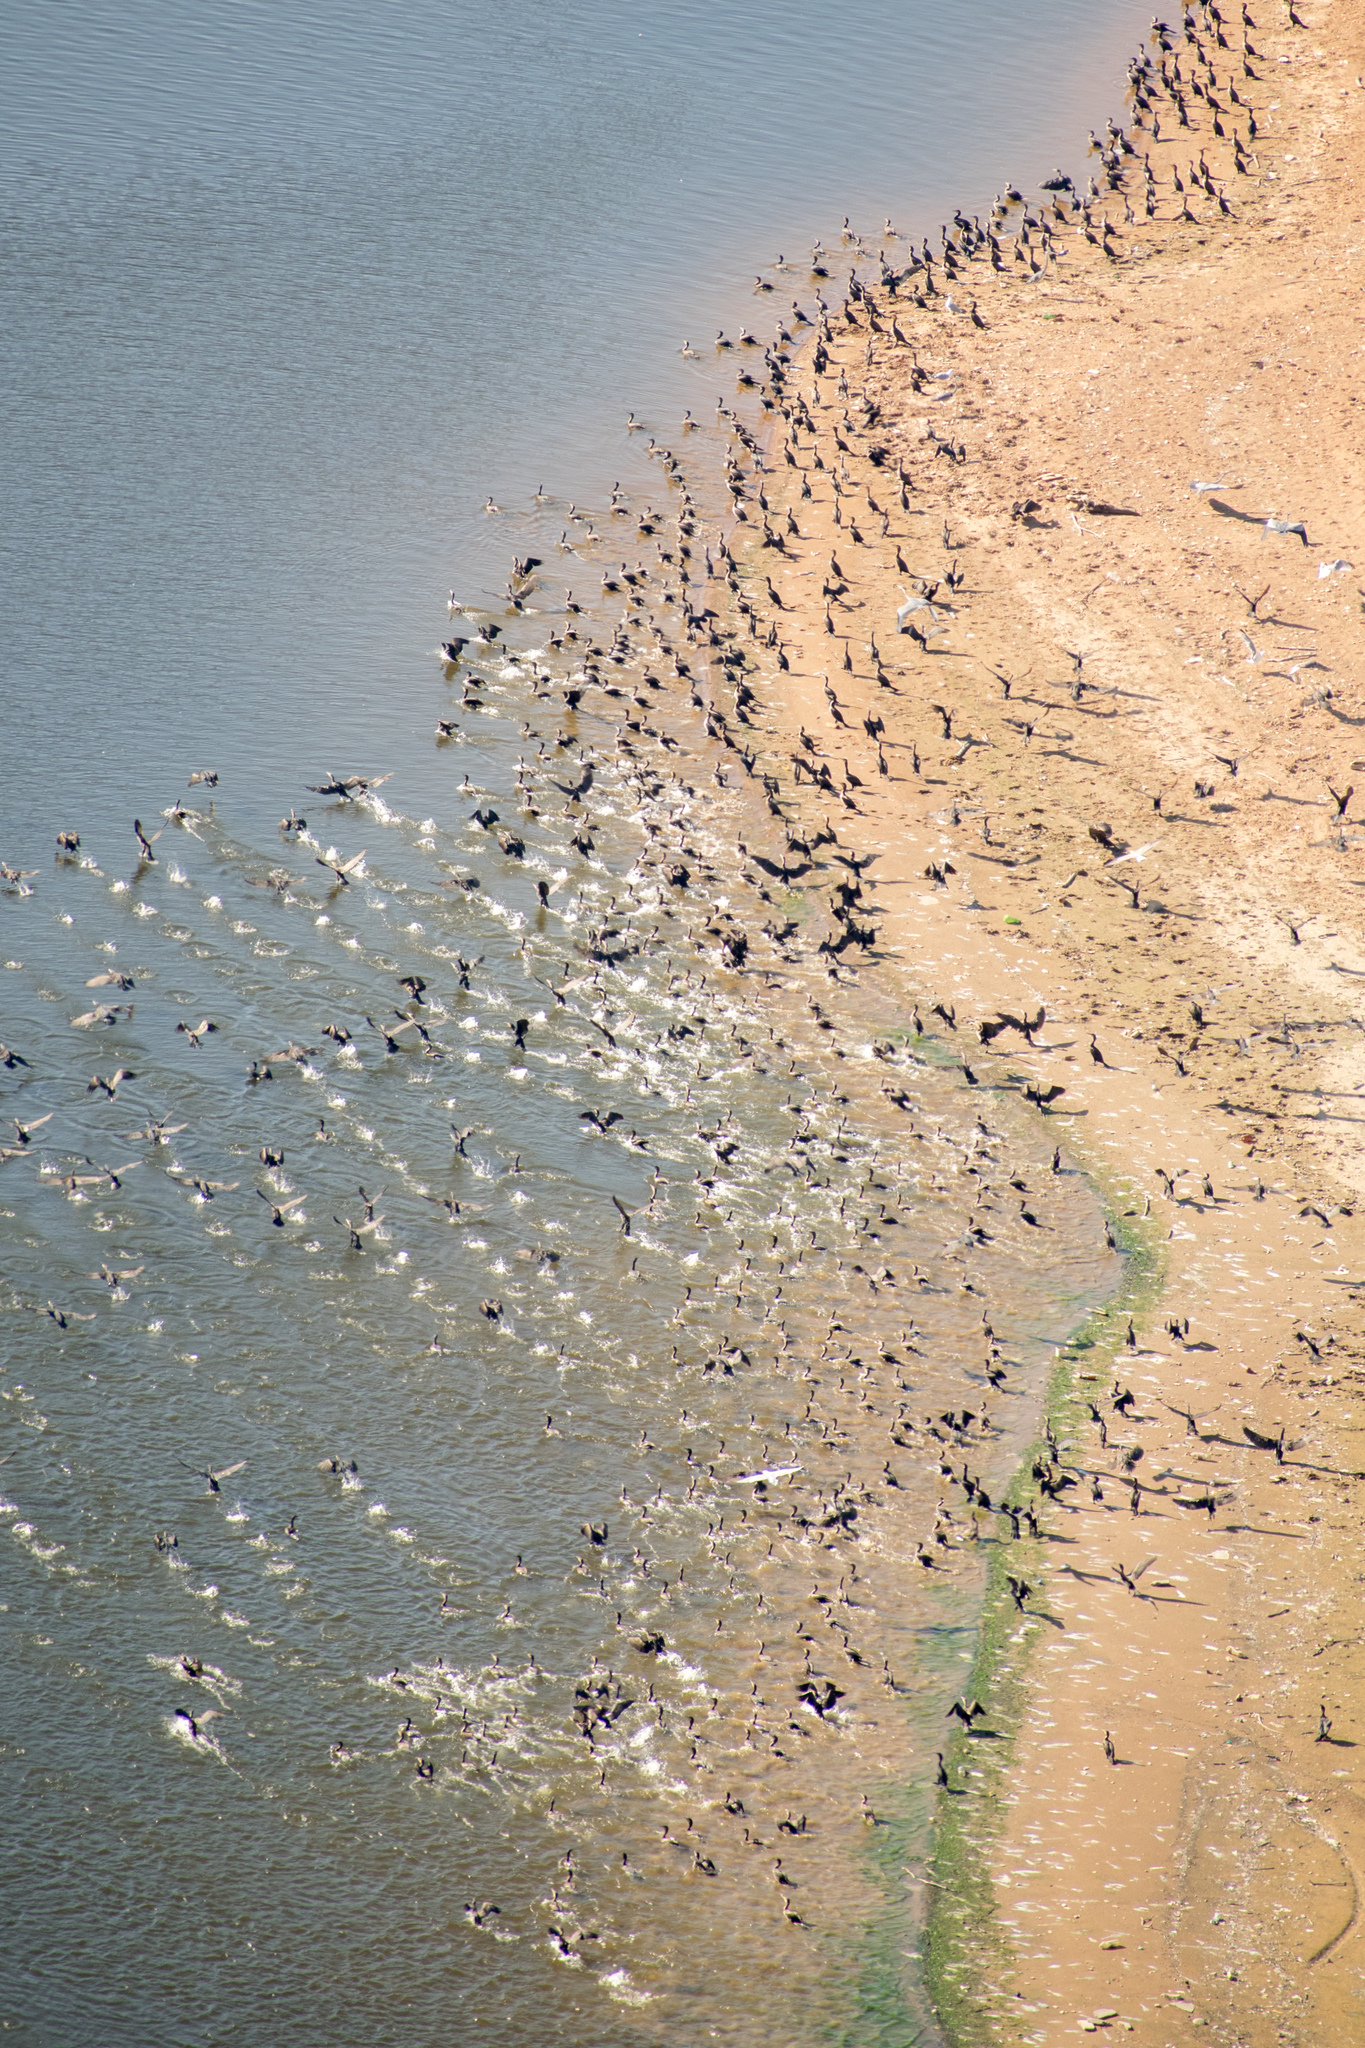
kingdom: Animalia
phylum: Chordata
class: Aves
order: Suliformes
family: Phalacrocoracidae
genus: Phalacrocorax
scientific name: Phalacrocorax carbo
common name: Great cormorant
